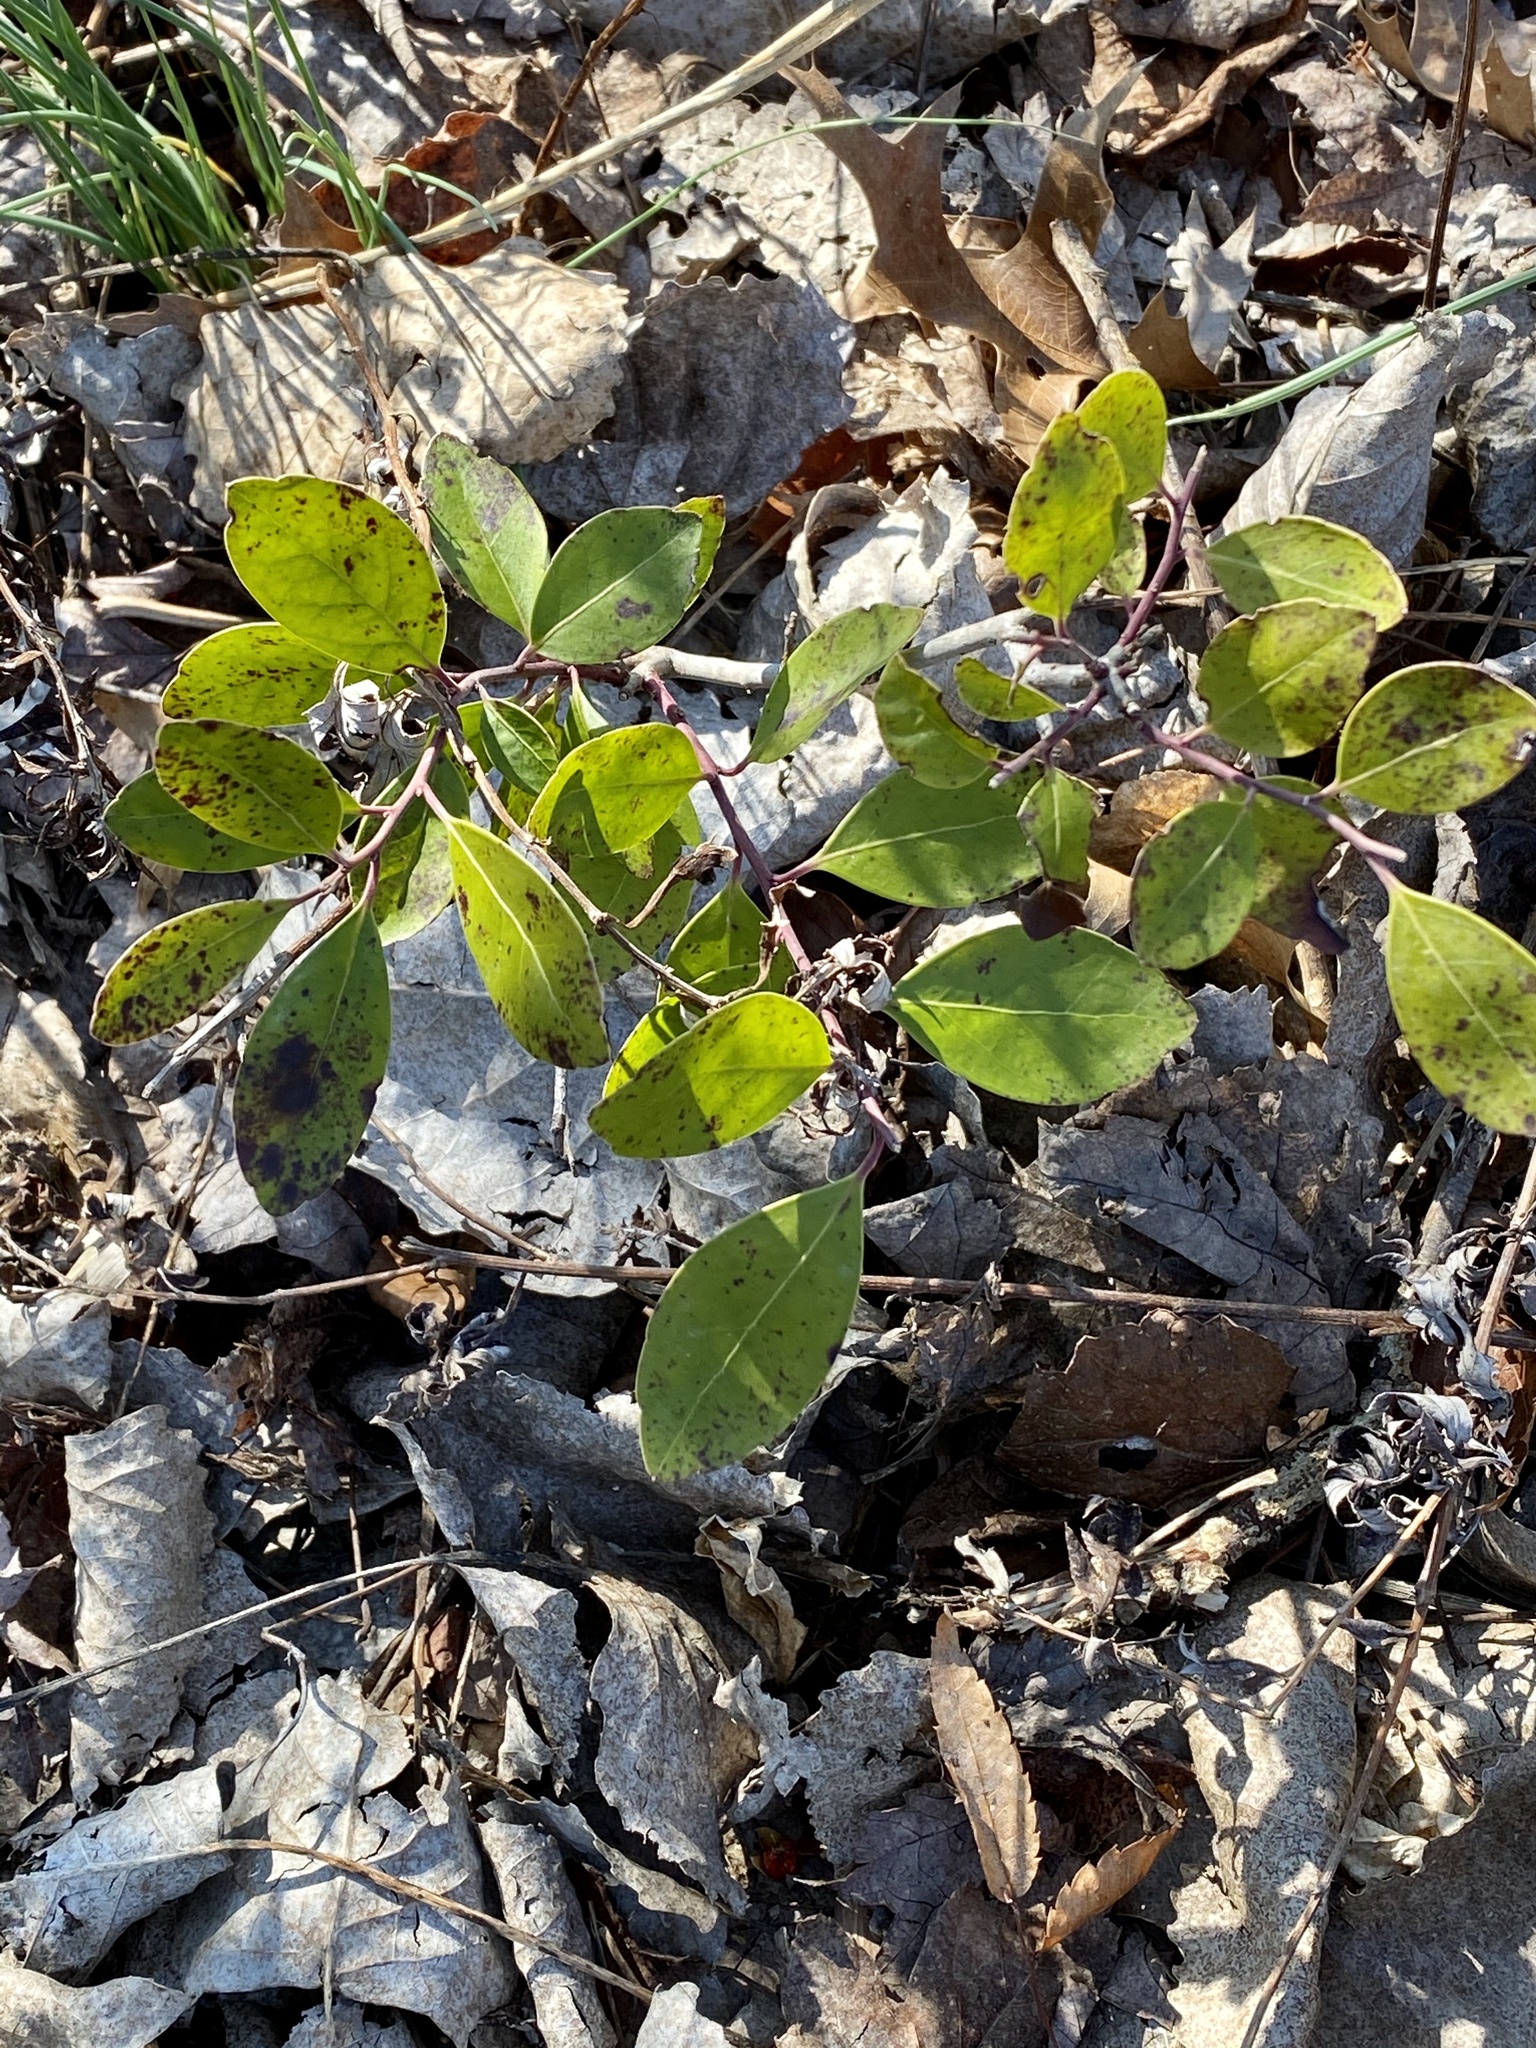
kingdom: Plantae
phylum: Tracheophyta
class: Magnoliopsida
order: Aquifoliales
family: Aquifoliaceae
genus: Ilex
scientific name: Ilex glabra
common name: Bitter gallberry
